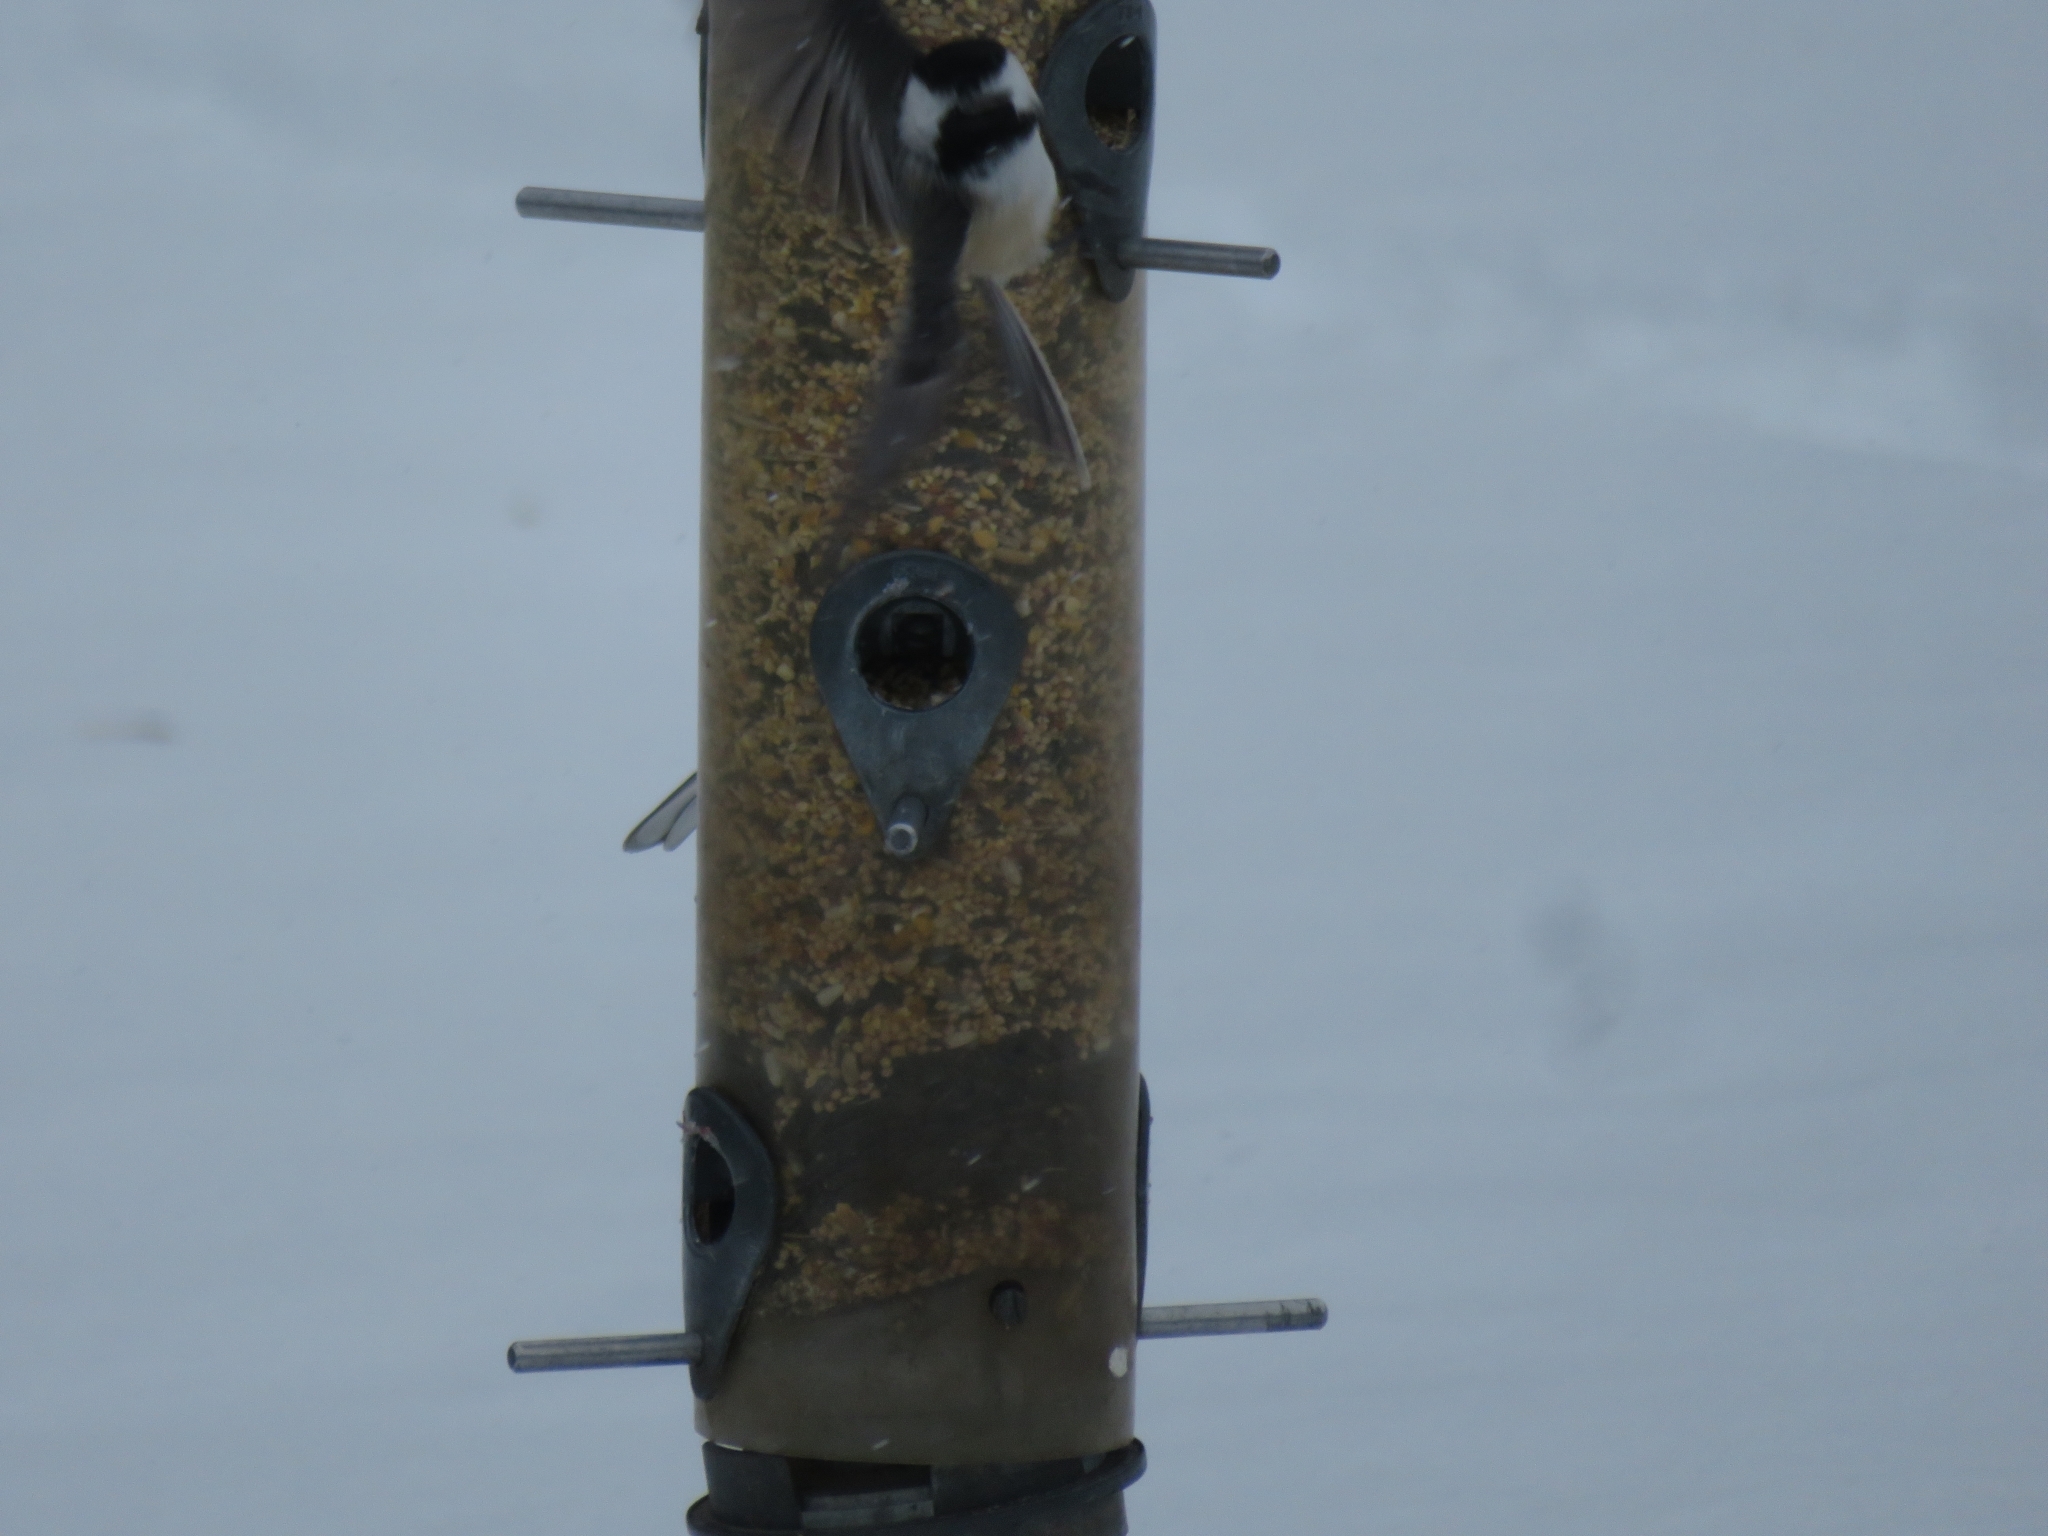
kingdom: Animalia
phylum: Chordata
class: Aves
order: Passeriformes
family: Paridae
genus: Poecile
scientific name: Poecile atricapillus
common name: Black-capped chickadee
